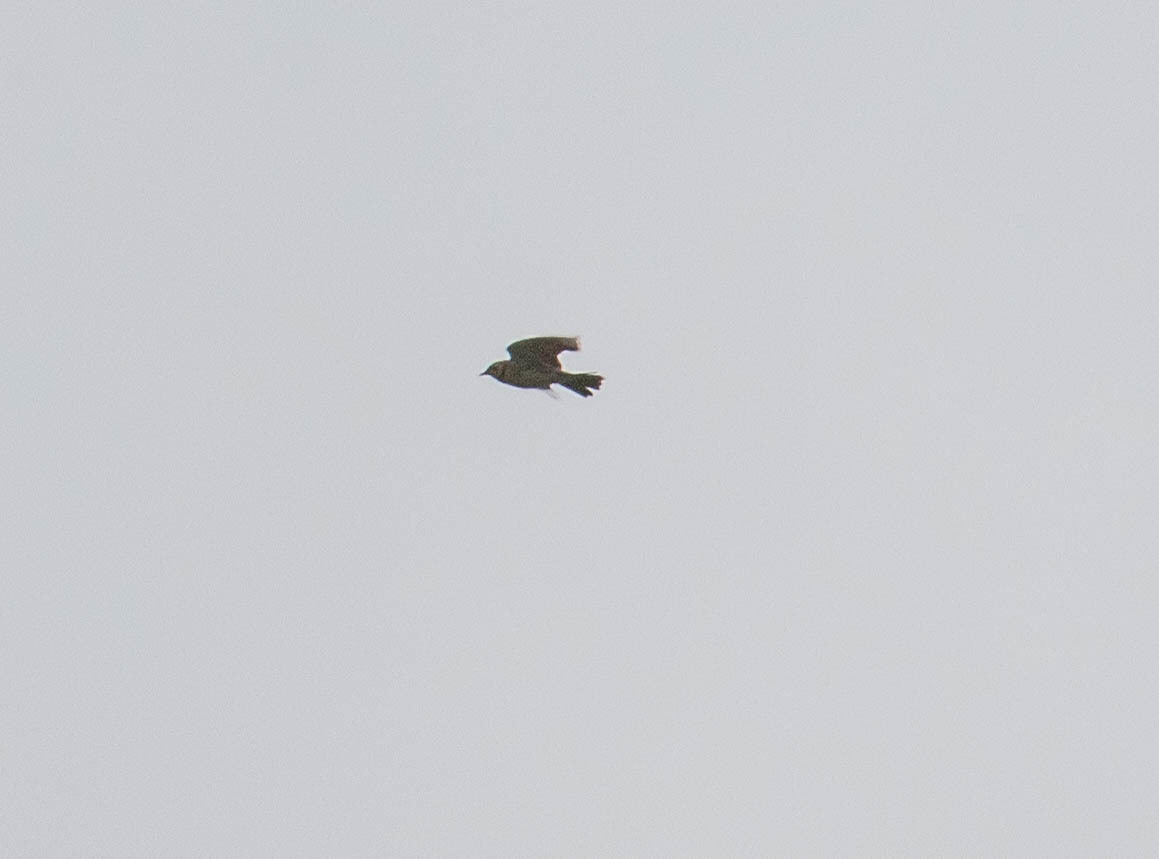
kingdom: Animalia
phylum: Chordata
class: Aves
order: Passeriformes
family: Alaudidae
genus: Eremophila
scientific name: Eremophila alpestris
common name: Horned lark
